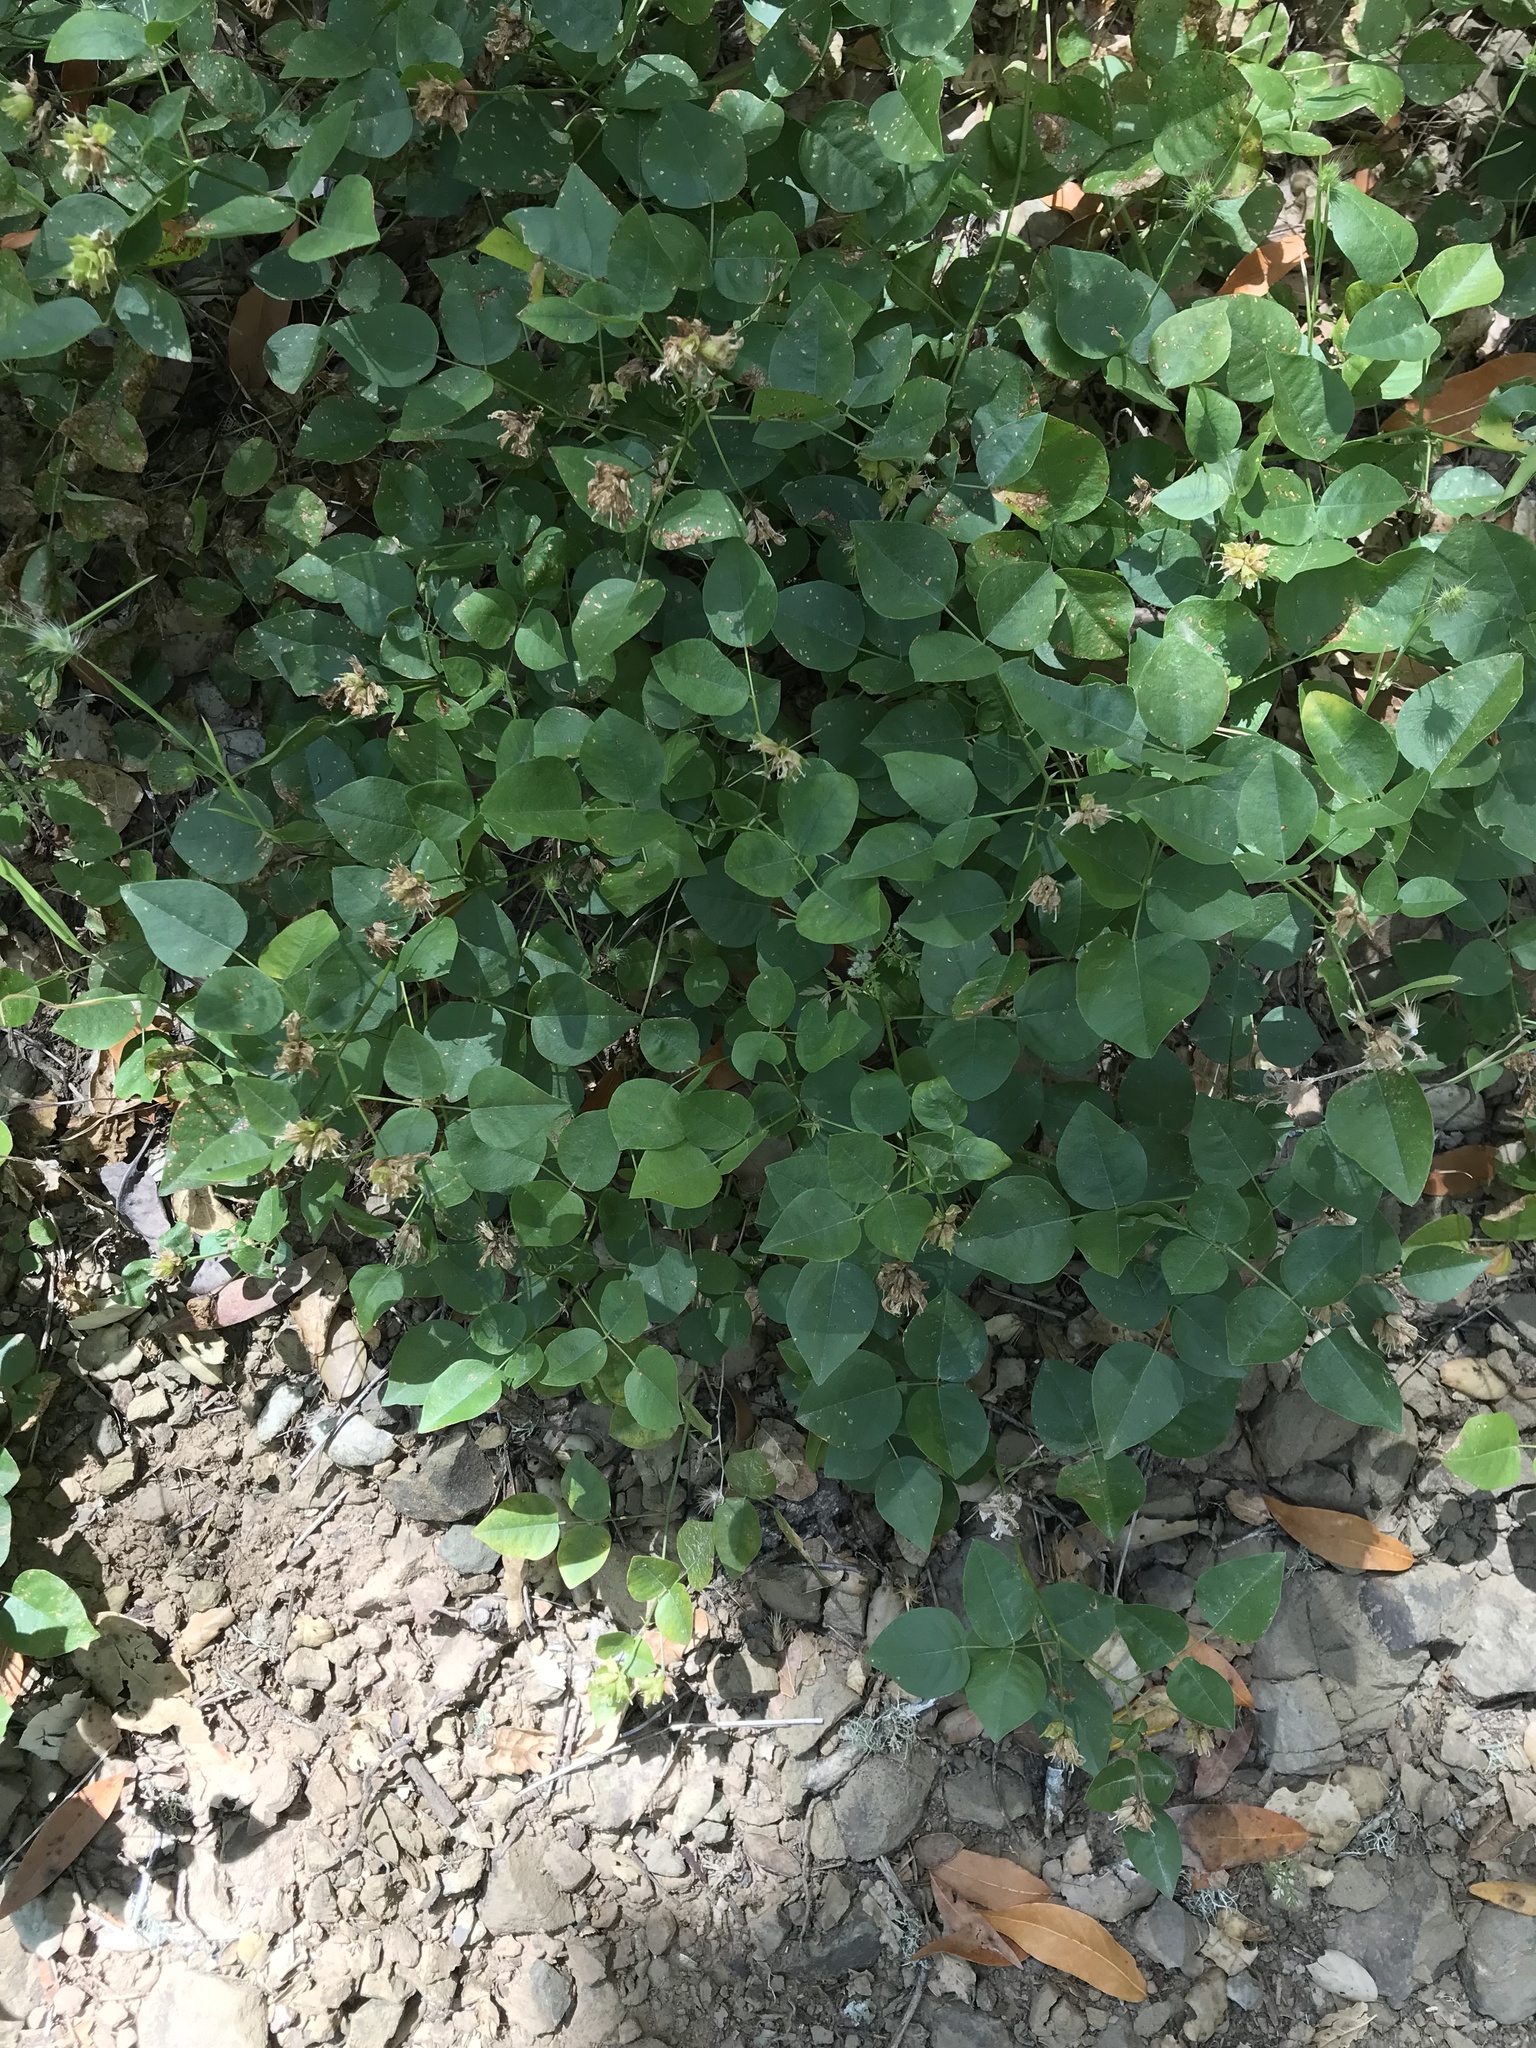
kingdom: Plantae
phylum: Tracheophyta
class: Magnoliopsida
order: Fabales
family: Fabaceae
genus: Rupertia
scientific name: Rupertia physodes
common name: California-tea
